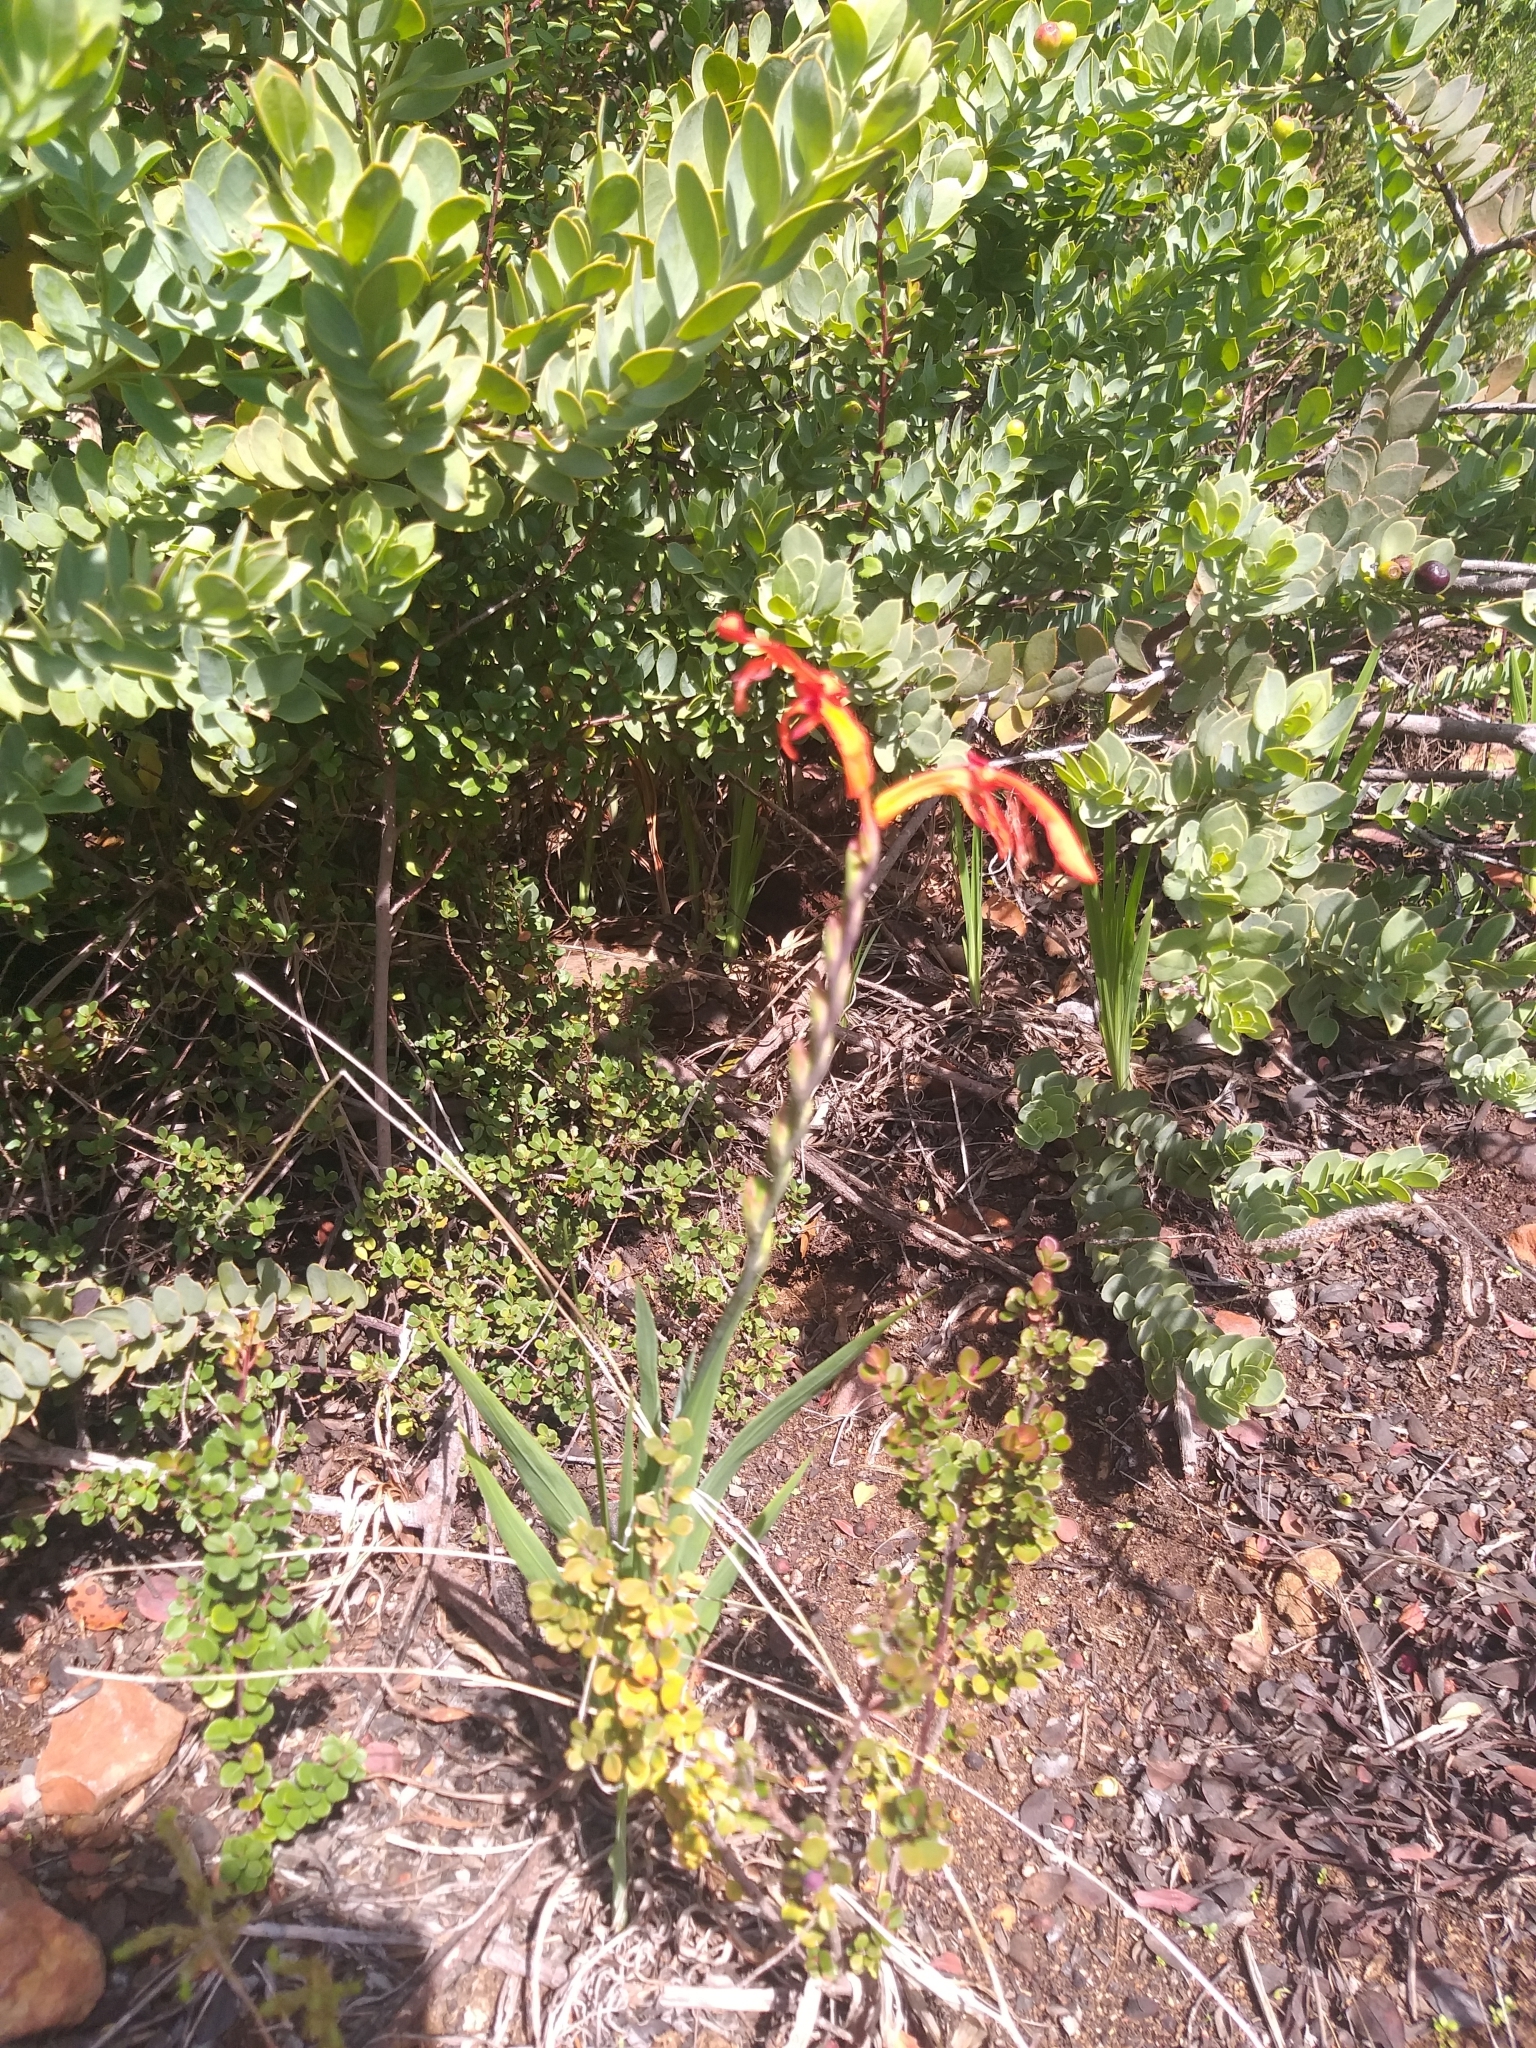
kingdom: Plantae
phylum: Tracheophyta
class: Liliopsida
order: Asparagales
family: Iridaceae
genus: Chasmanthe
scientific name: Chasmanthe aethiopica
